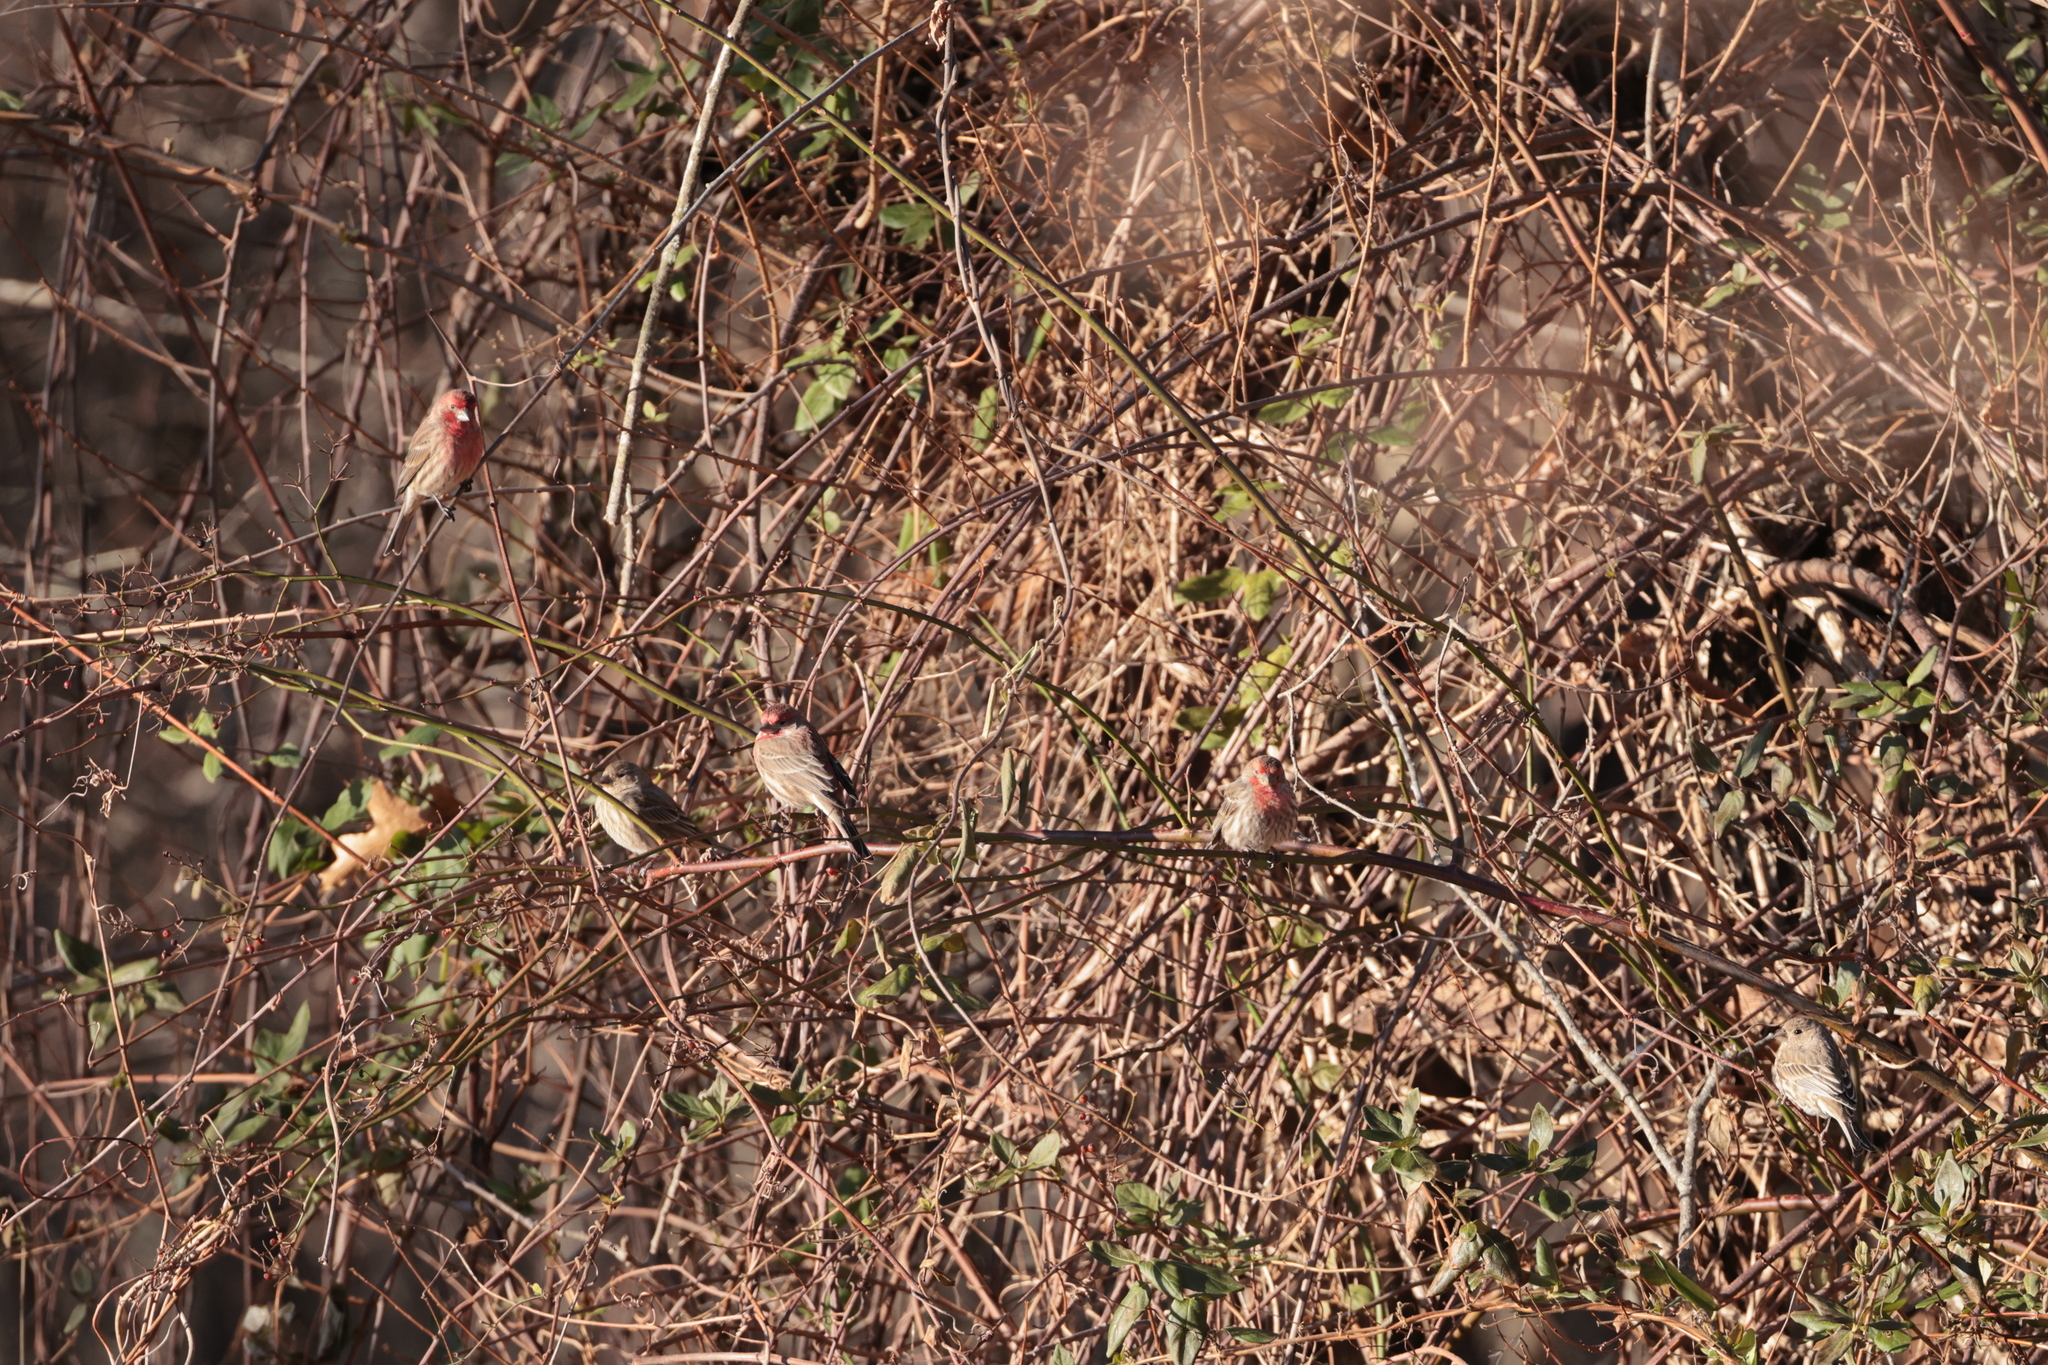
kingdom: Animalia
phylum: Chordata
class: Aves
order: Passeriformes
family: Fringillidae
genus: Haemorhous
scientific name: Haemorhous mexicanus
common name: House finch
